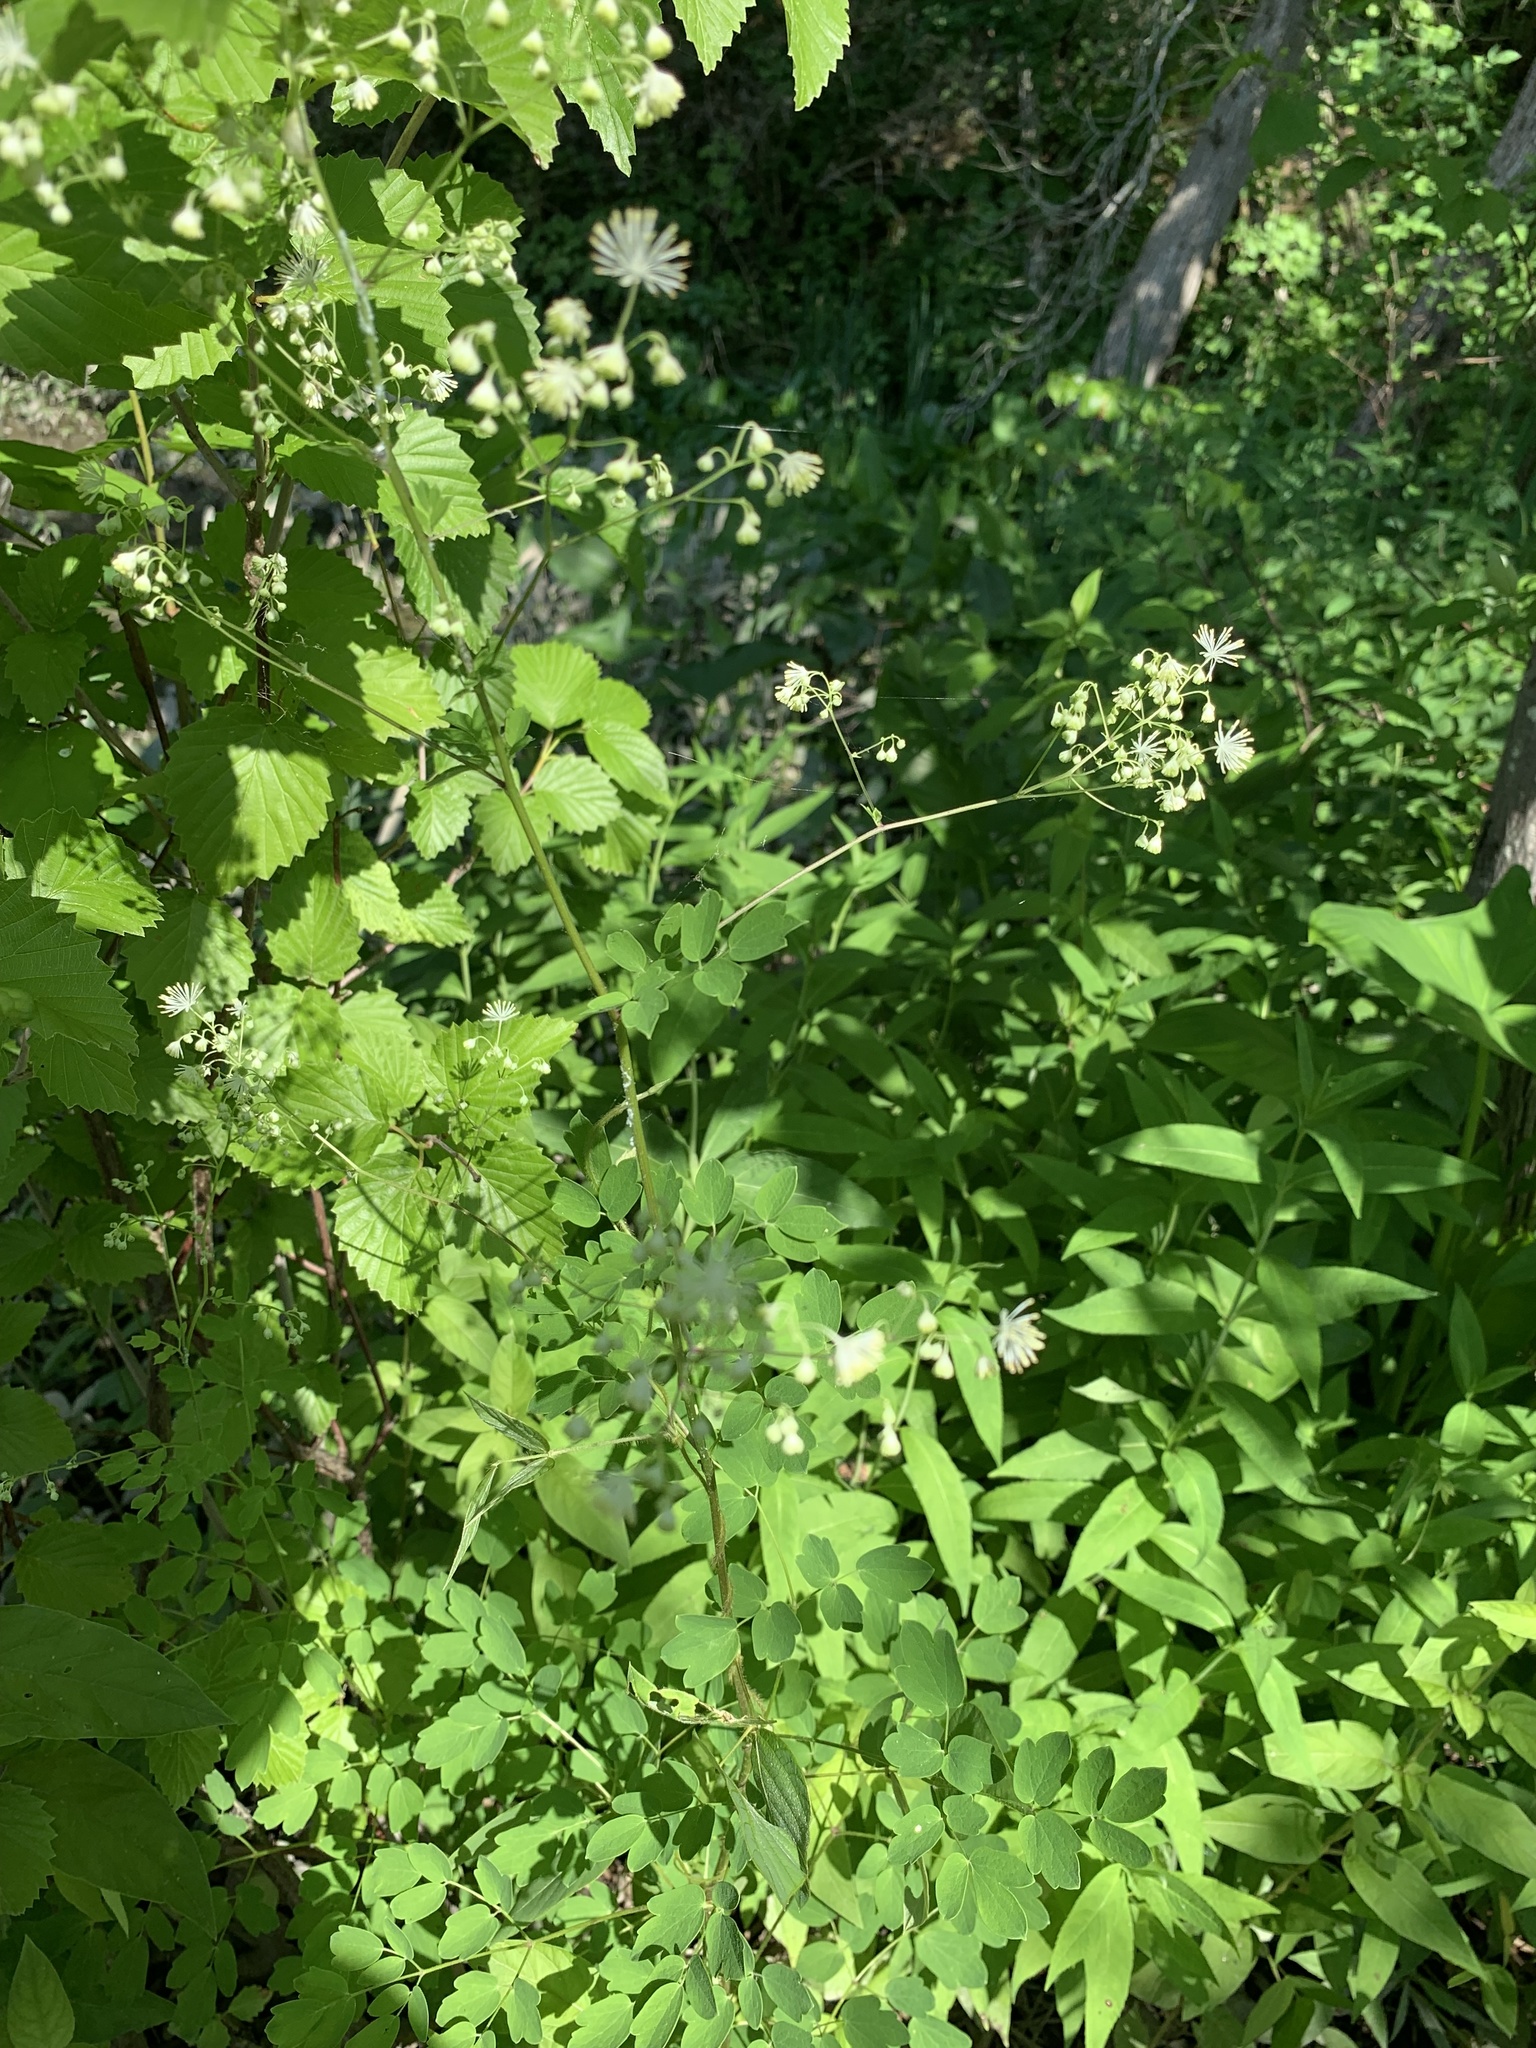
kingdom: Plantae
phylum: Tracheophyta
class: Magnoliopsida
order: Ranunculales
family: Ranunculaceae
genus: Thalictrum
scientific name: Thalictrum pubescens
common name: King-of-the-meadow
